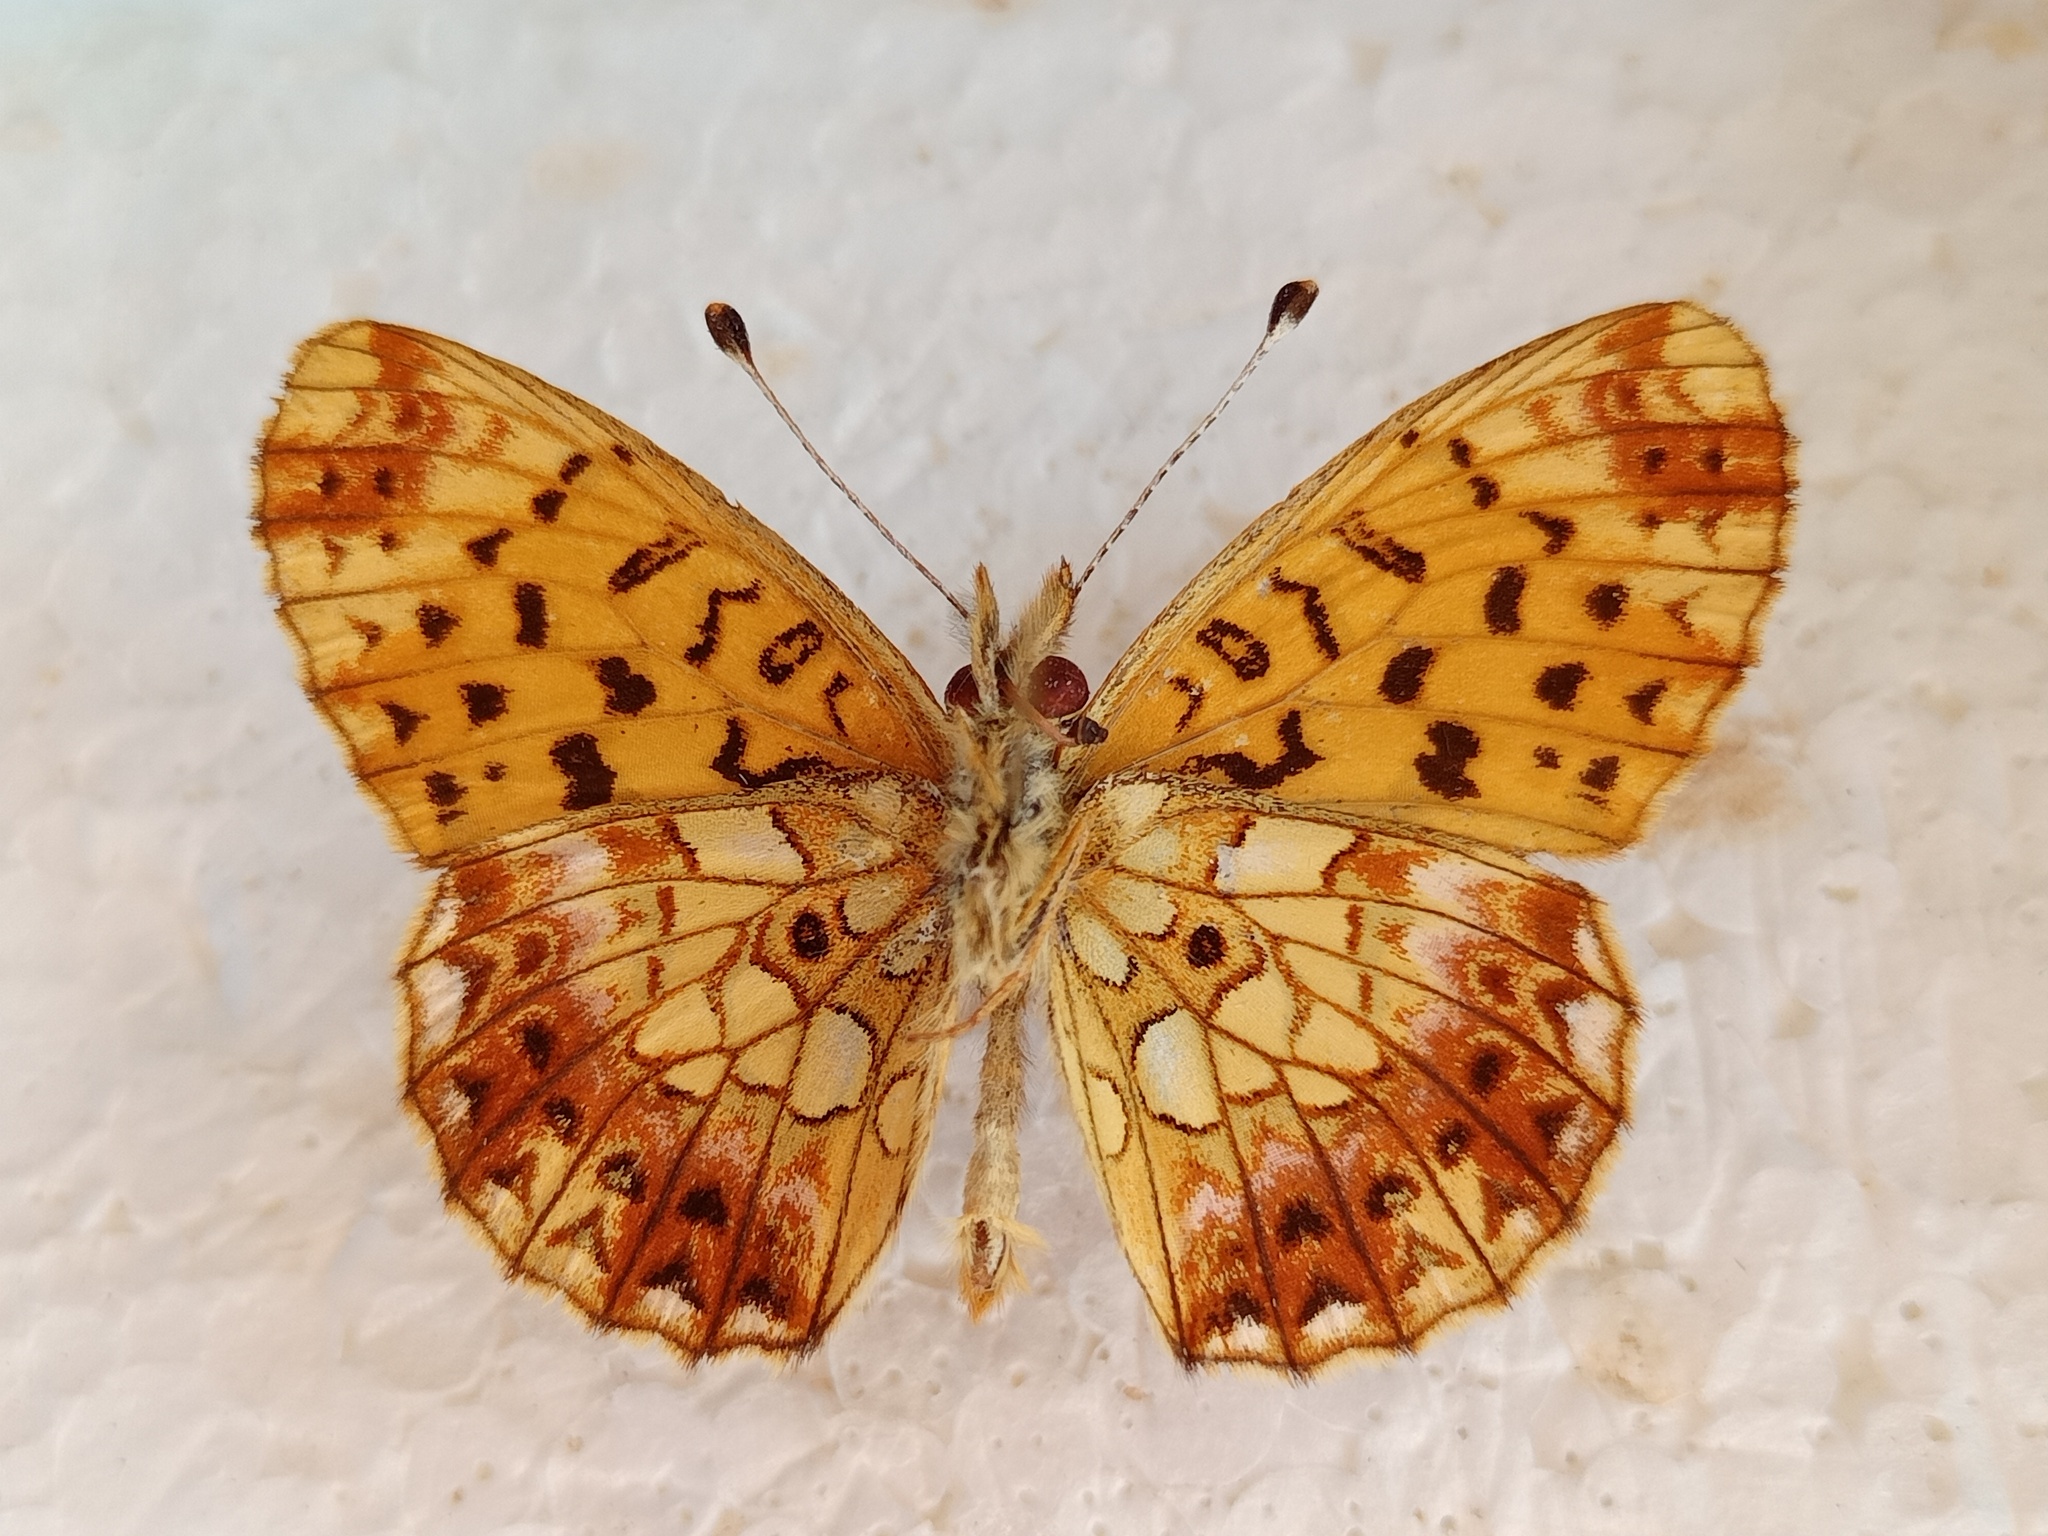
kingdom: Animalia
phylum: Arthropoda
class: Insecta
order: Lepidoptera
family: Nymphalidae
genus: Clossiana
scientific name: Clossiana selenis
